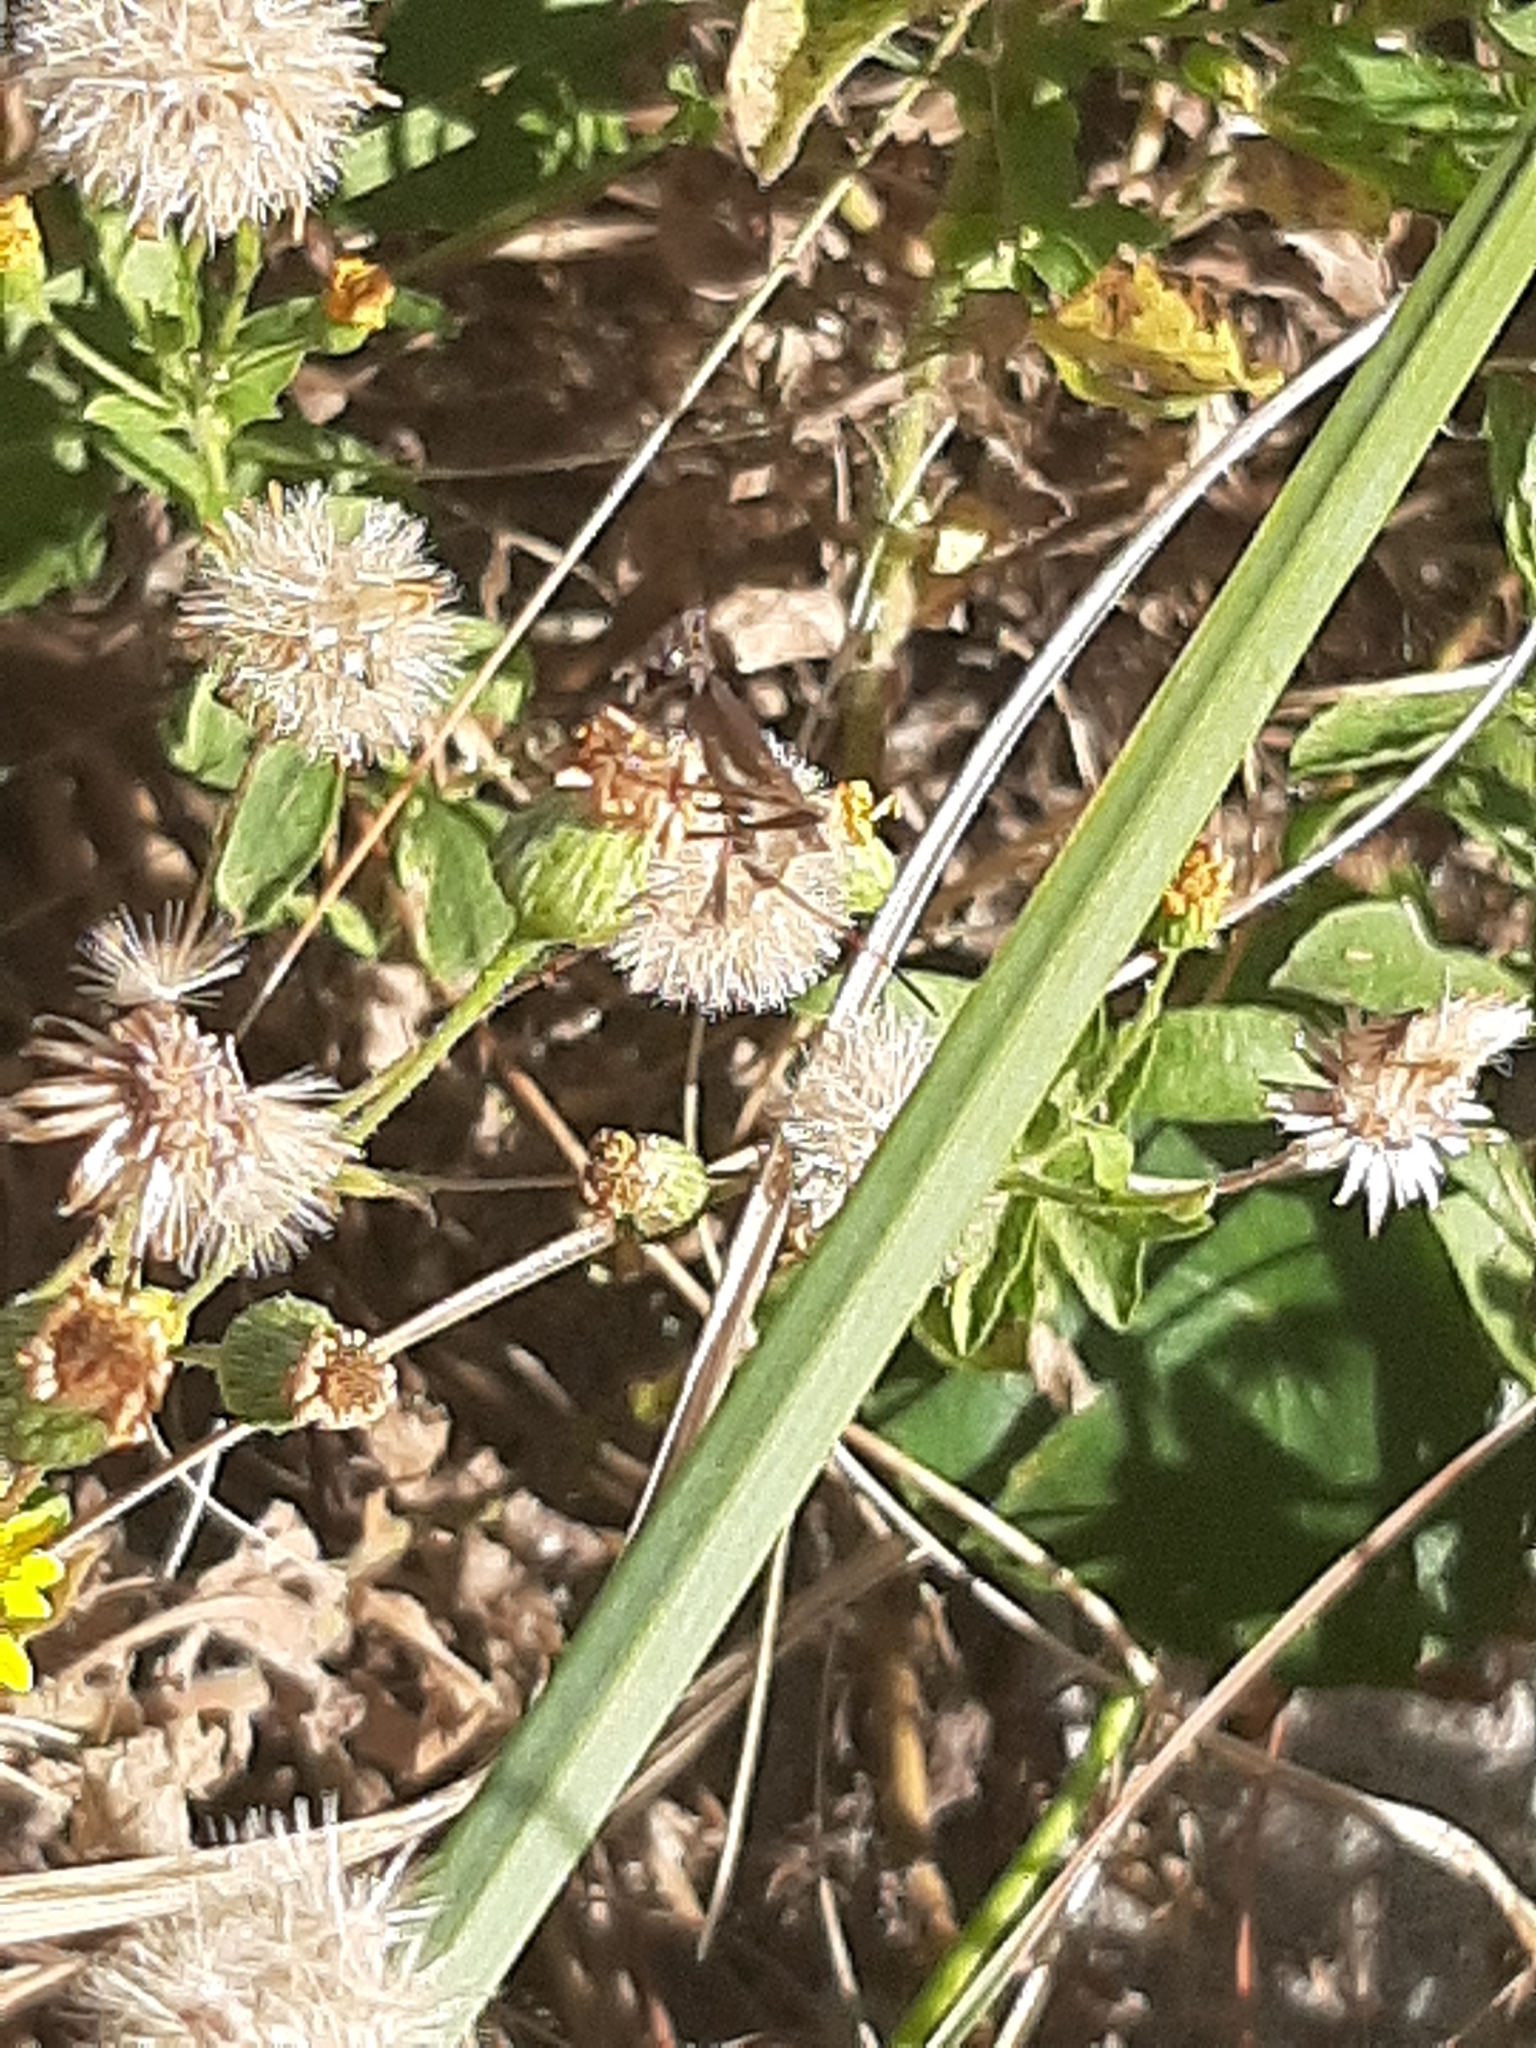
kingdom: Animalia
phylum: Arthropoda
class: Insecta
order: Hemiptera
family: Coreidae
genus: Leptoglossus
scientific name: Leptoglossus phyllopus
